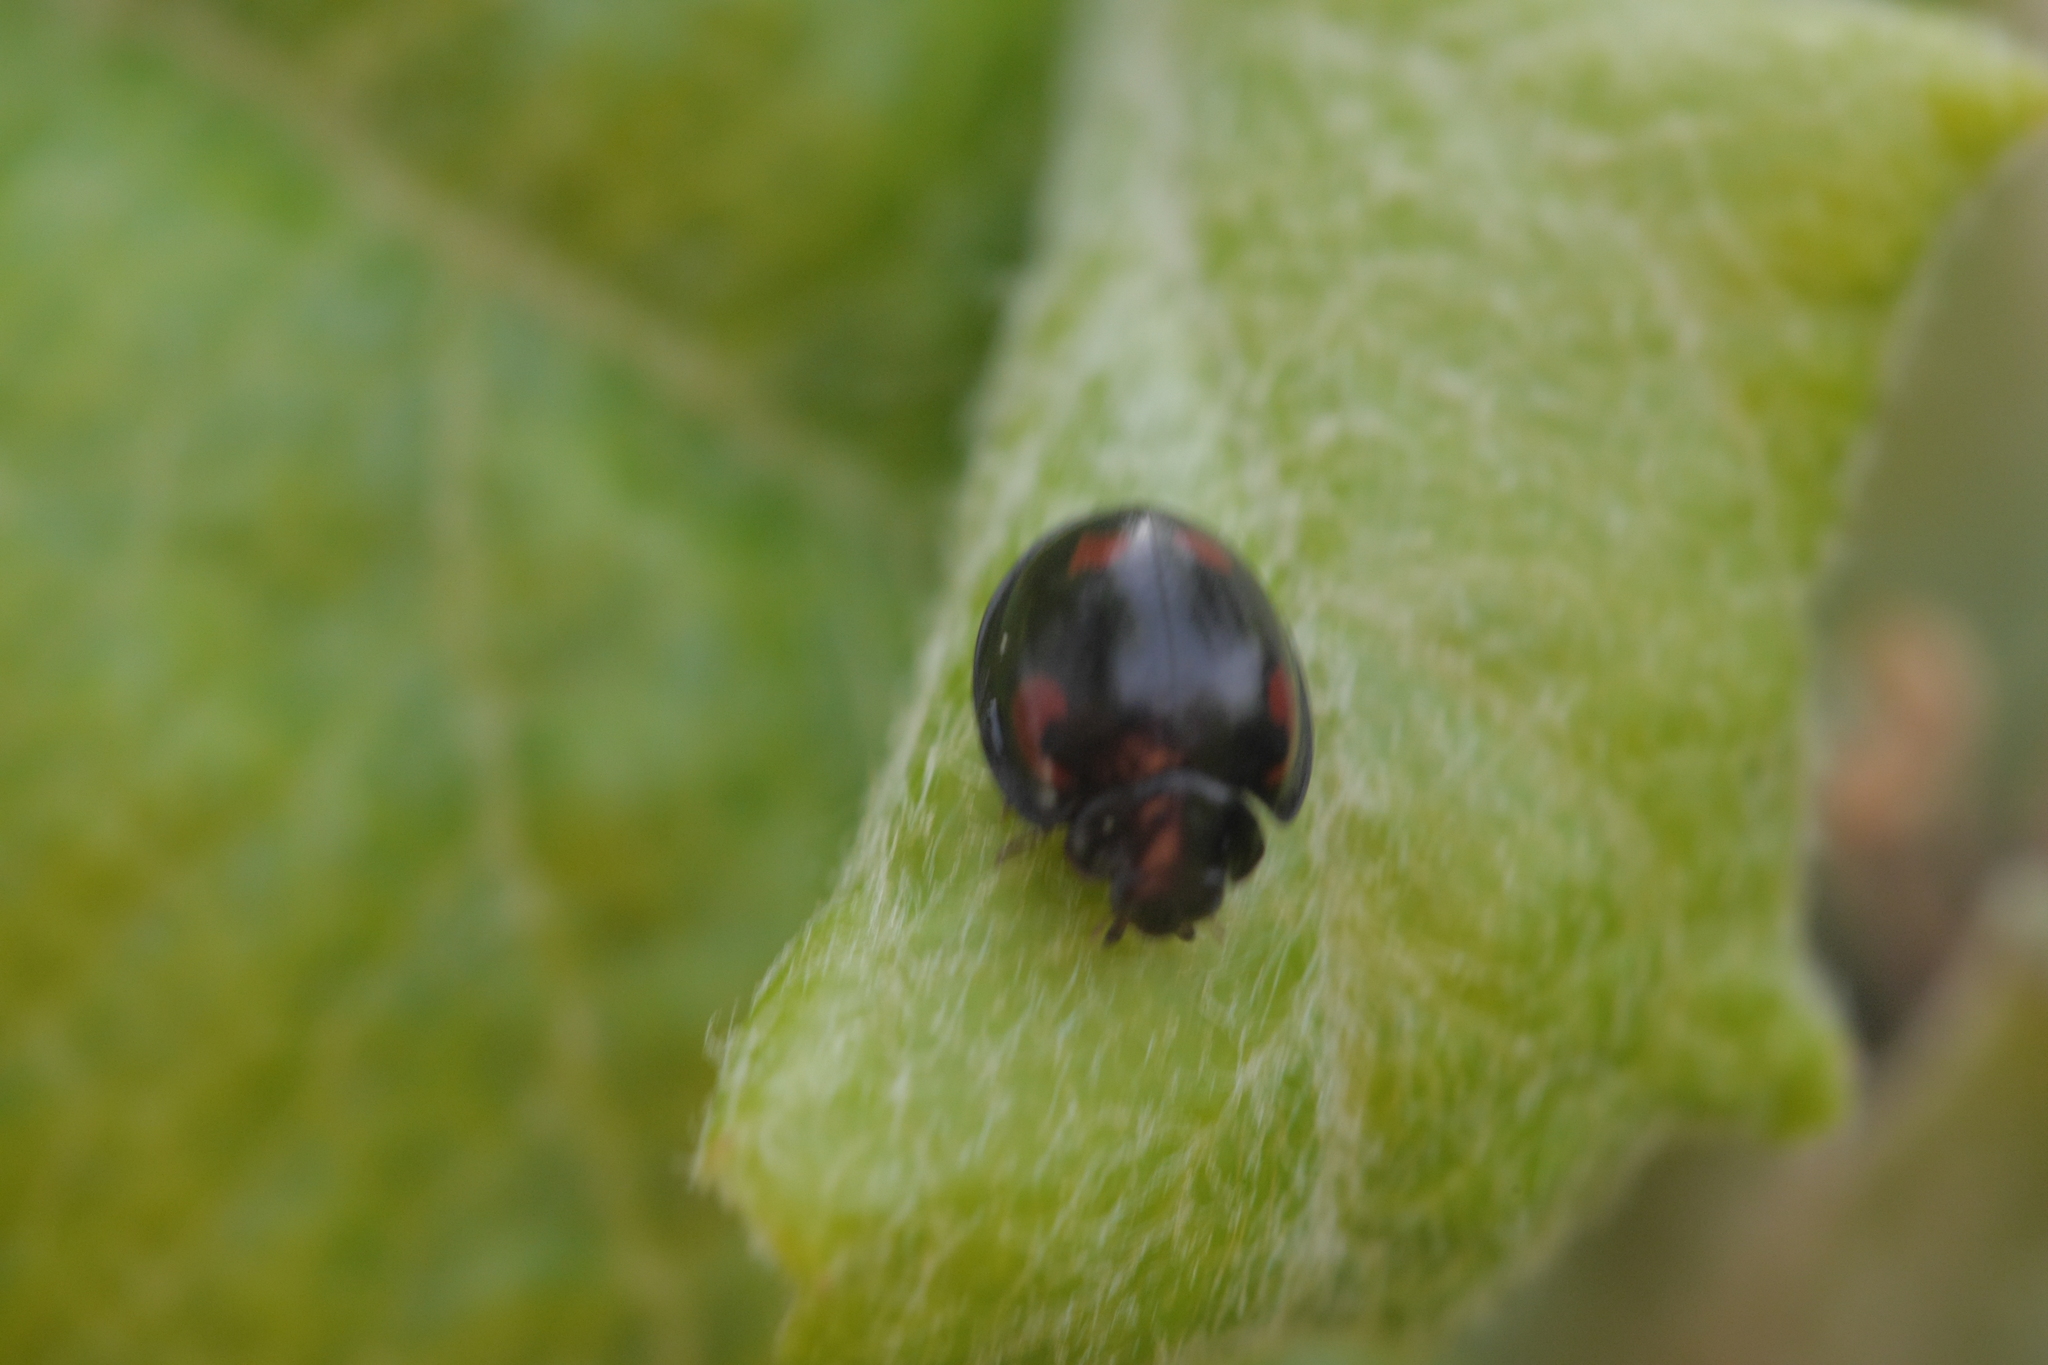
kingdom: Animalia
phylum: Arthropoda
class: Insecta
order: Coleoptera
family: Coccinellidae
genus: Brumus
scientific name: Brumus quadripustulatus
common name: Ladybird beetle
